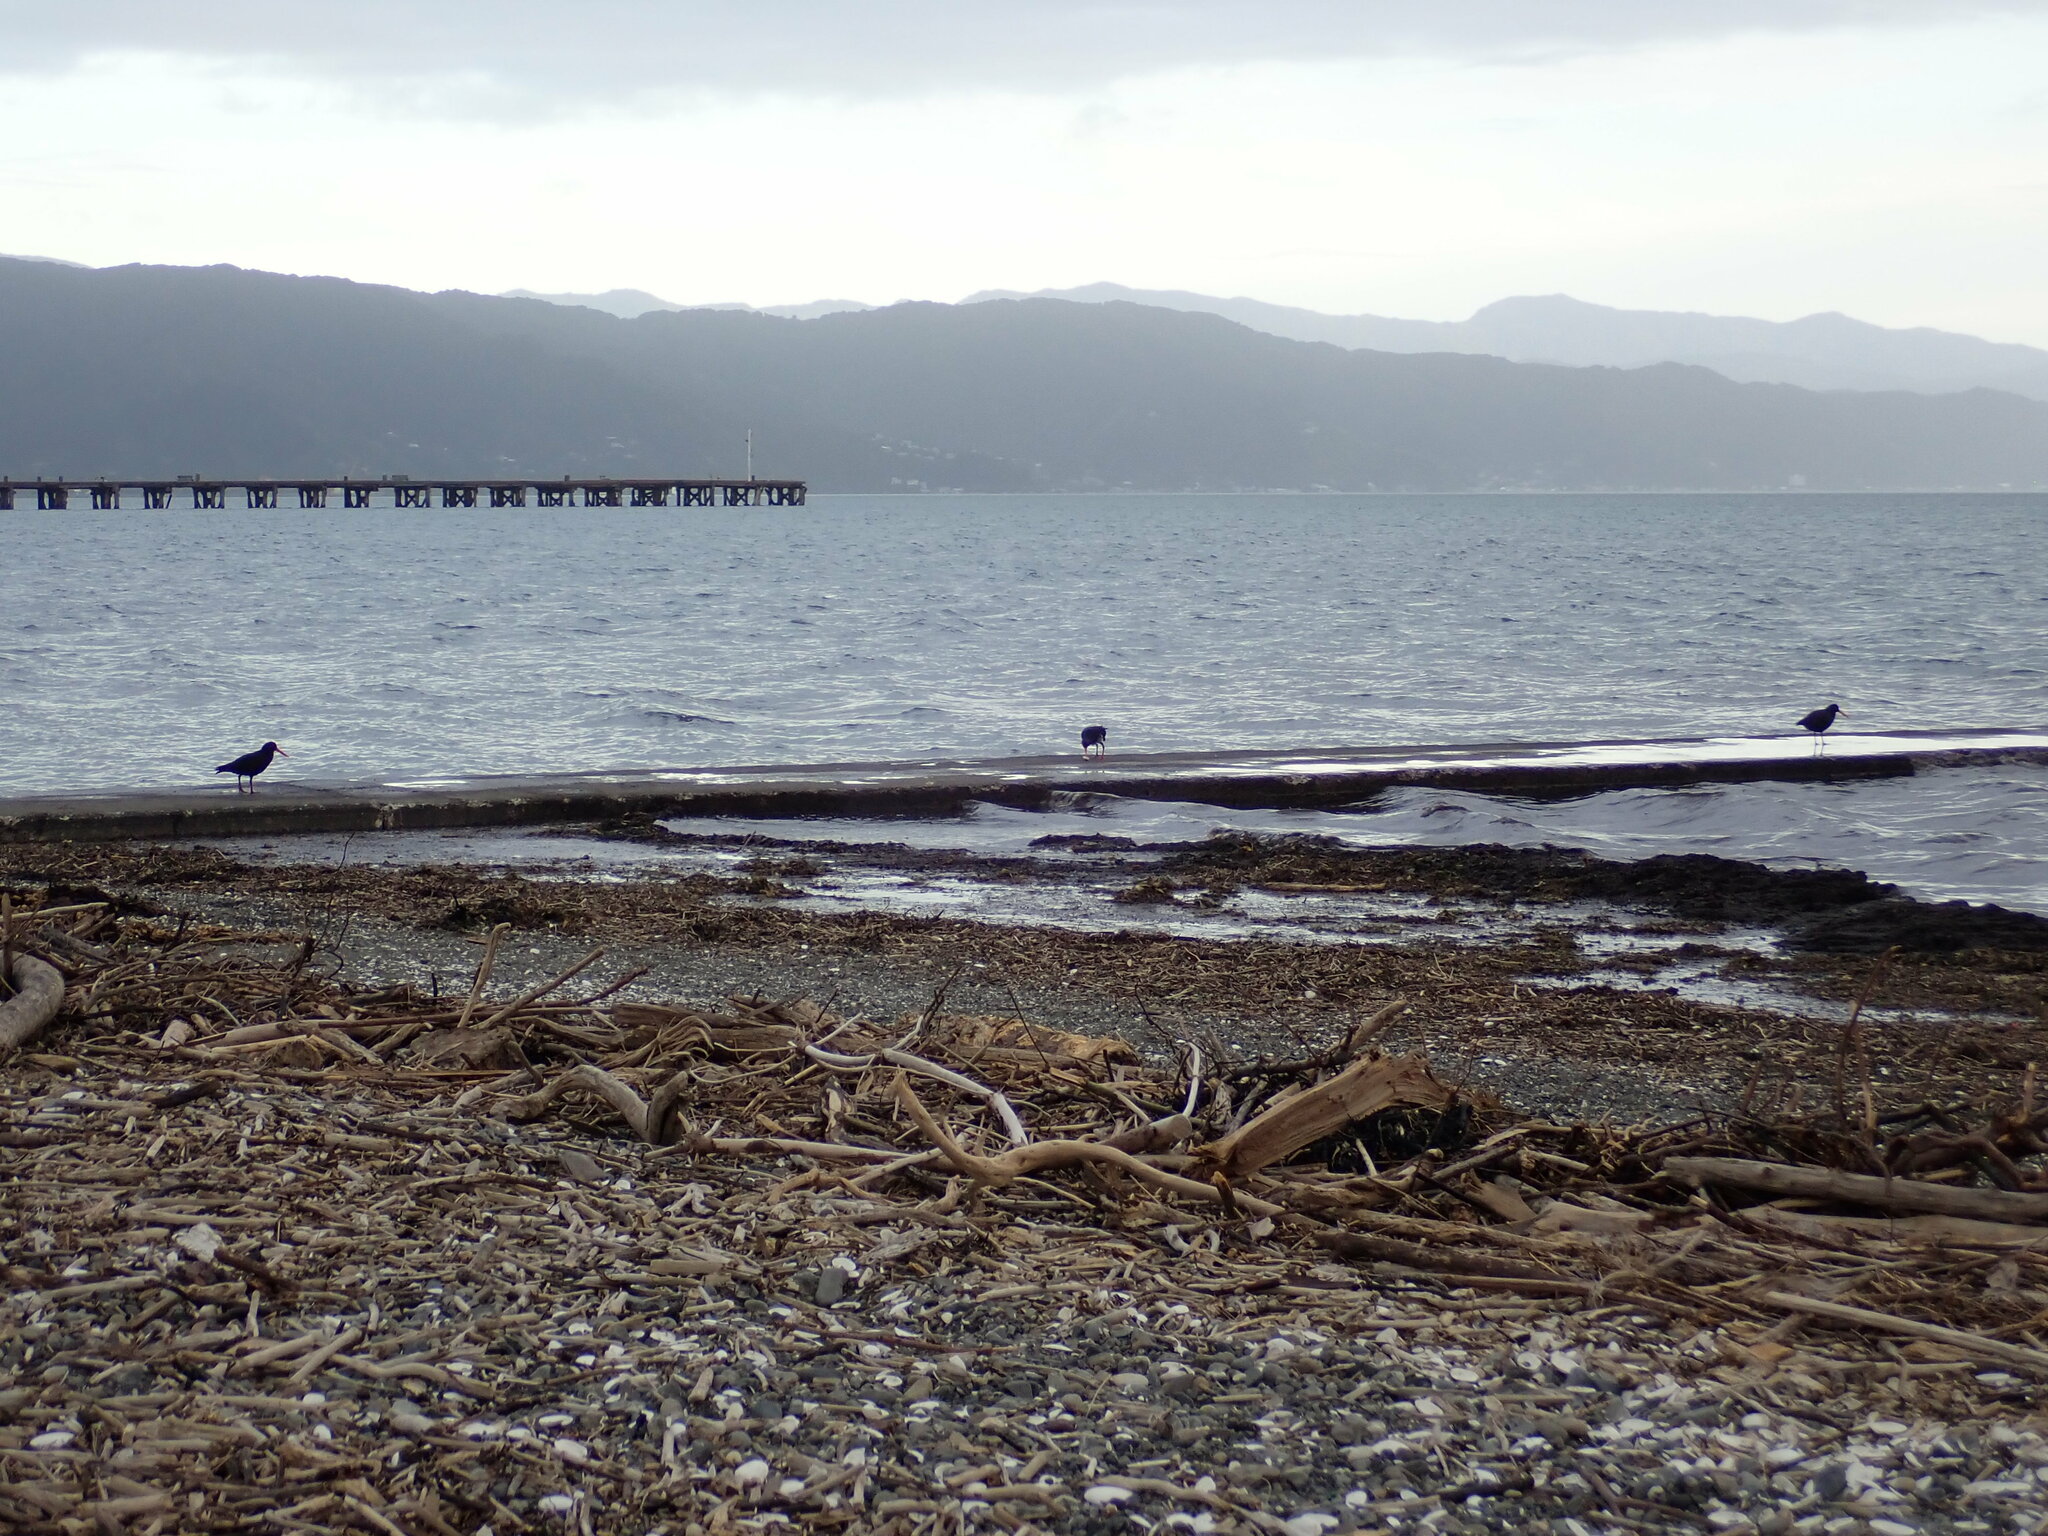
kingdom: Animalia
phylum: Chordata
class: Aves
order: Charadriiformes
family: Haematopodidae
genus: Haematopus
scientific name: Haematopus unicolor
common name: Variable oystercatcher
